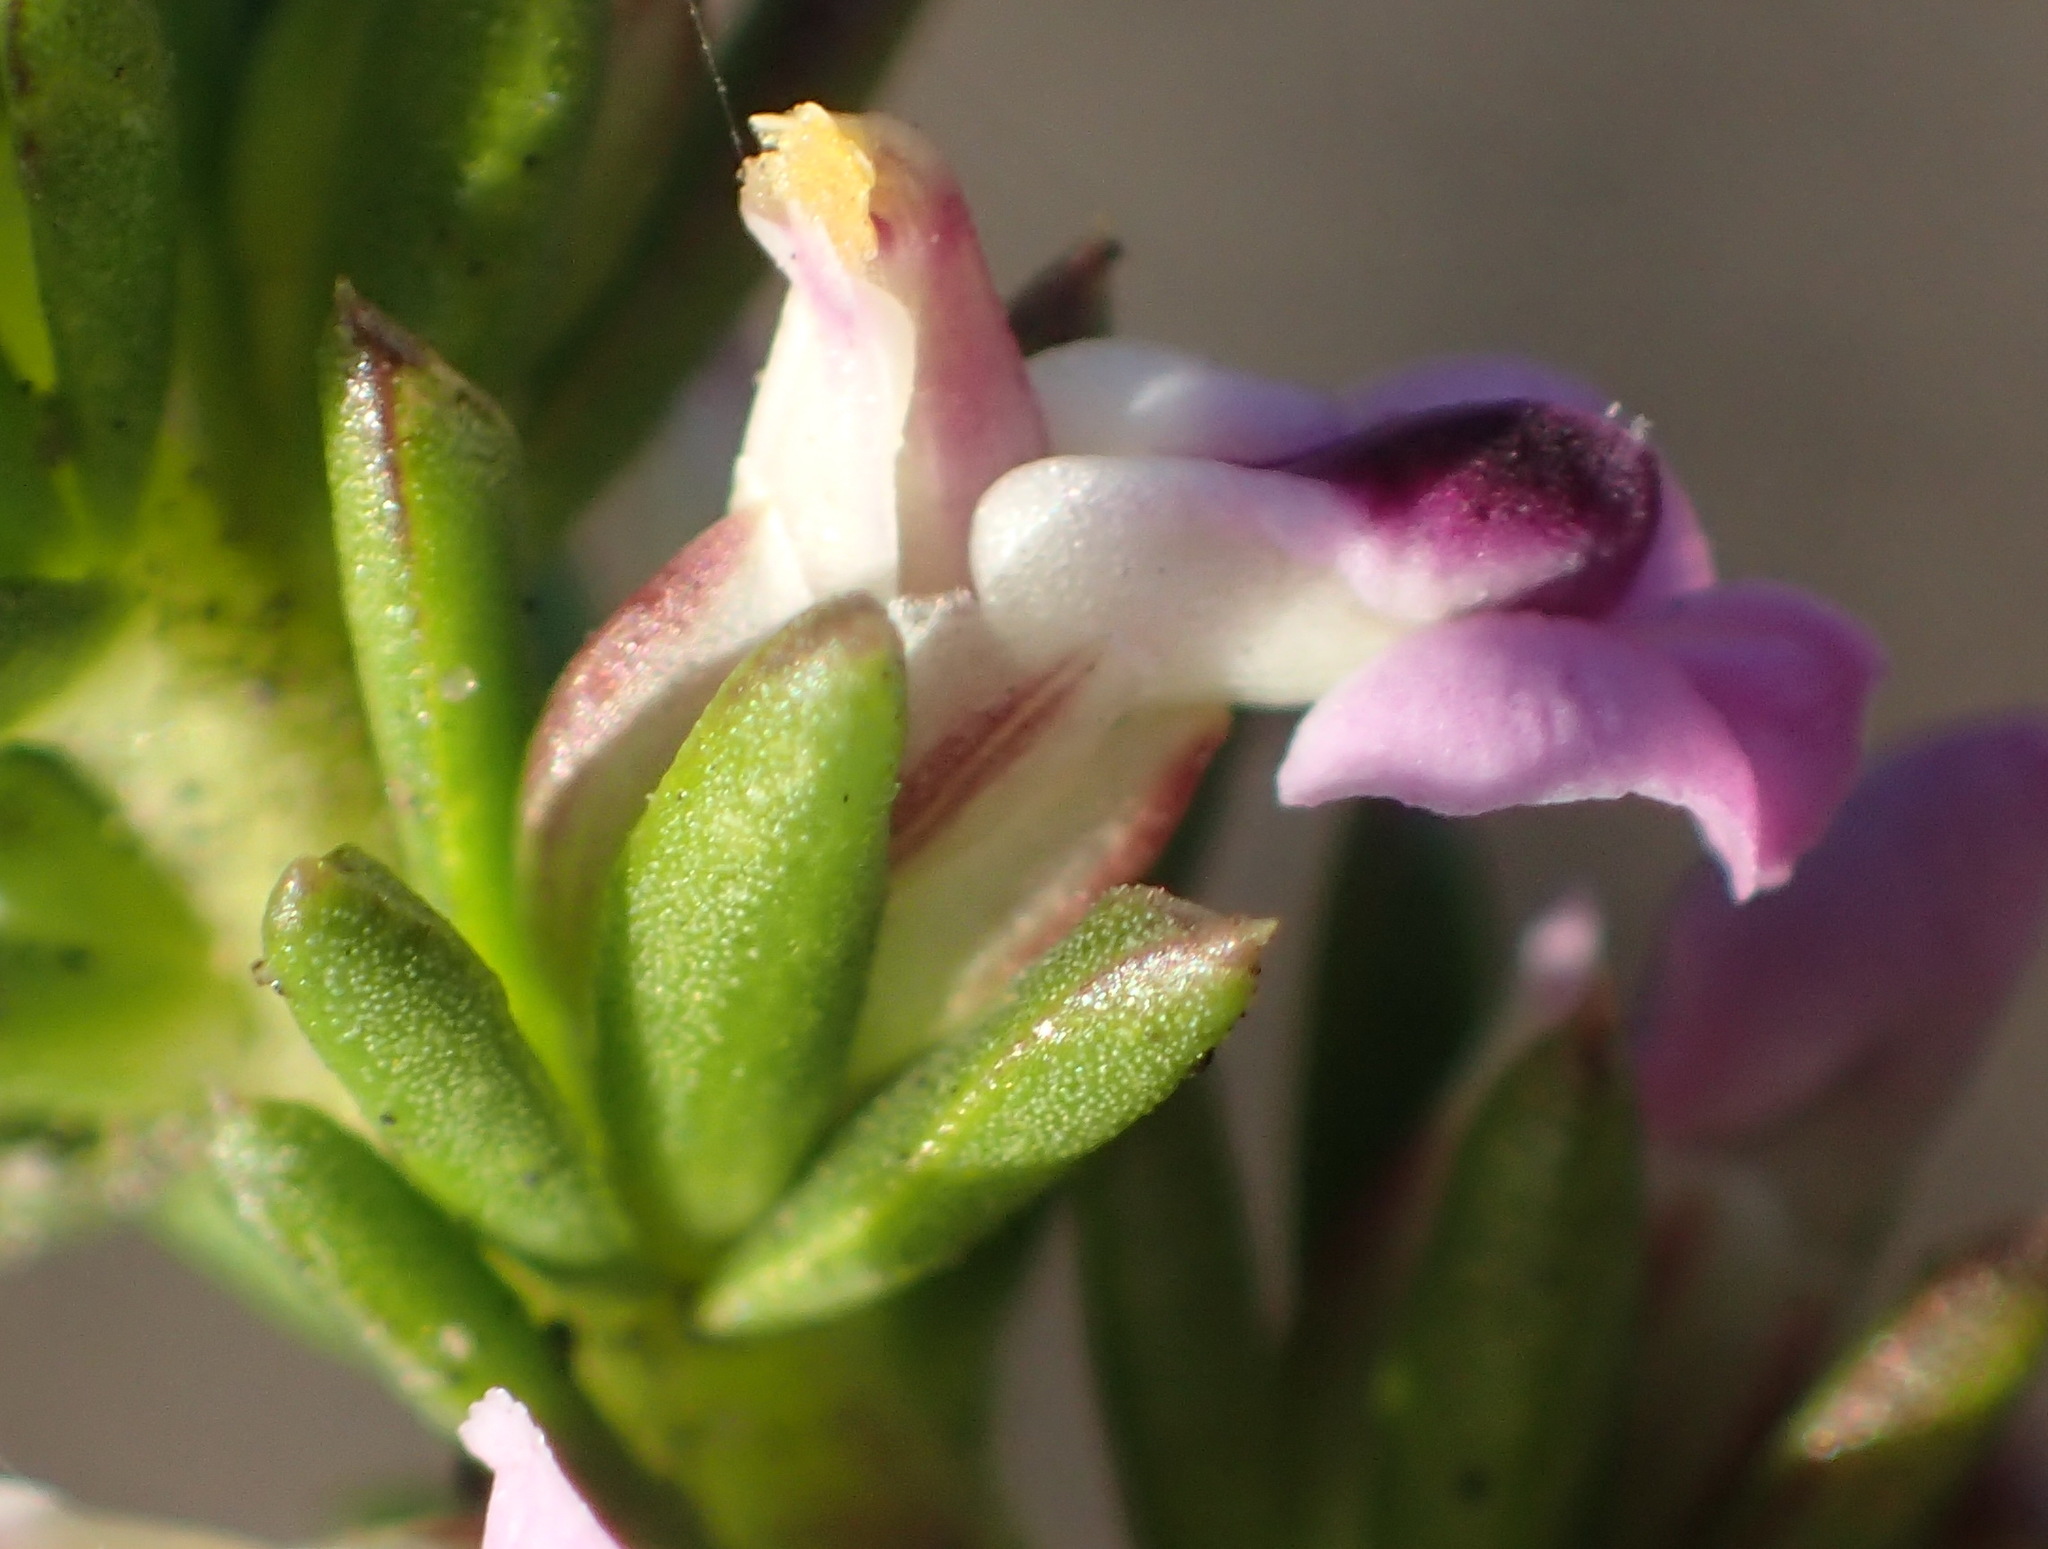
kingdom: Plantae
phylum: Tracheophyta
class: Magnoliopsida
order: Fabales
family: Polygalaceae
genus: Muraltia
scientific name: Muraltia ericifolia
